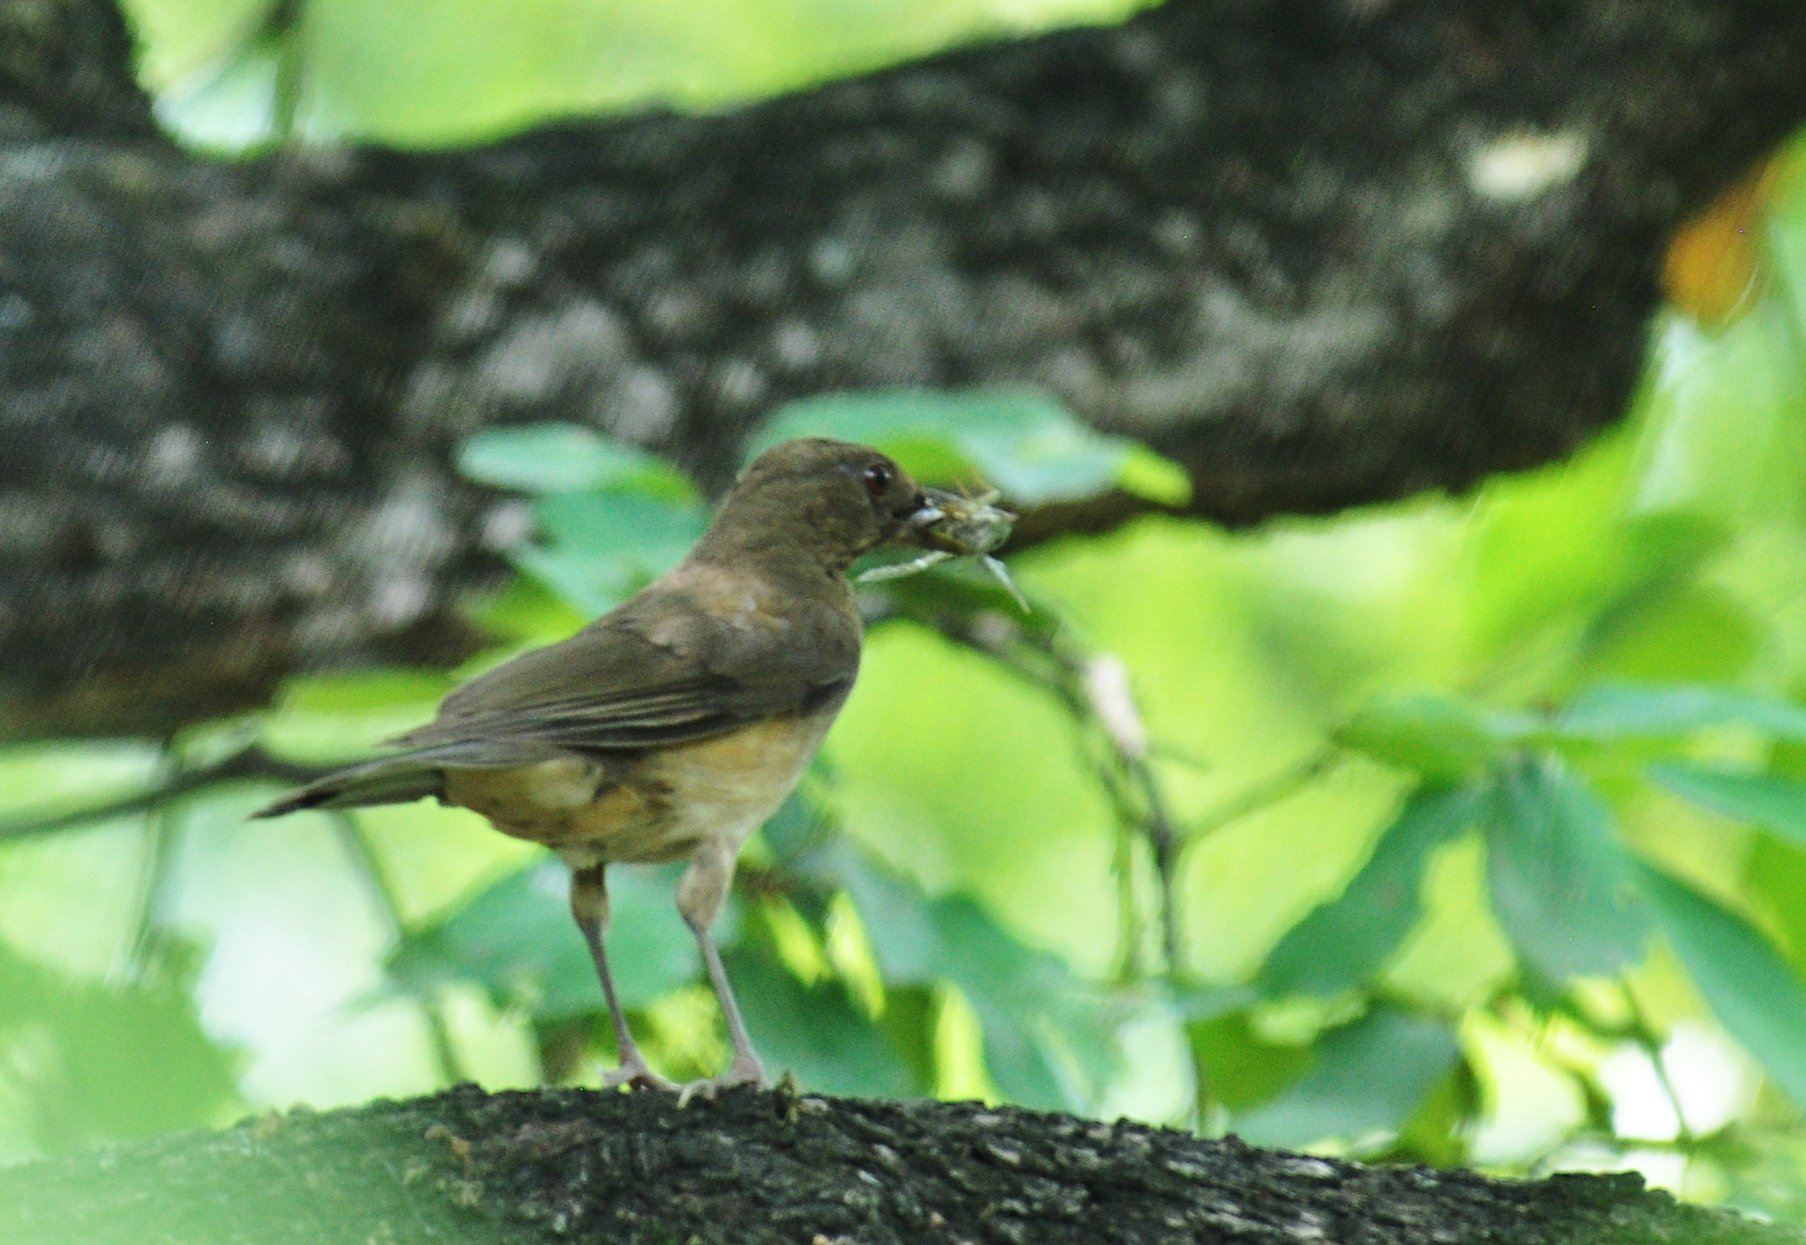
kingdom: Animalia
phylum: Chordata
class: Aves
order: Passeriformes
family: Turdidae
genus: Turdus
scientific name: Turdus grayi
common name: Clay-colored thrush
